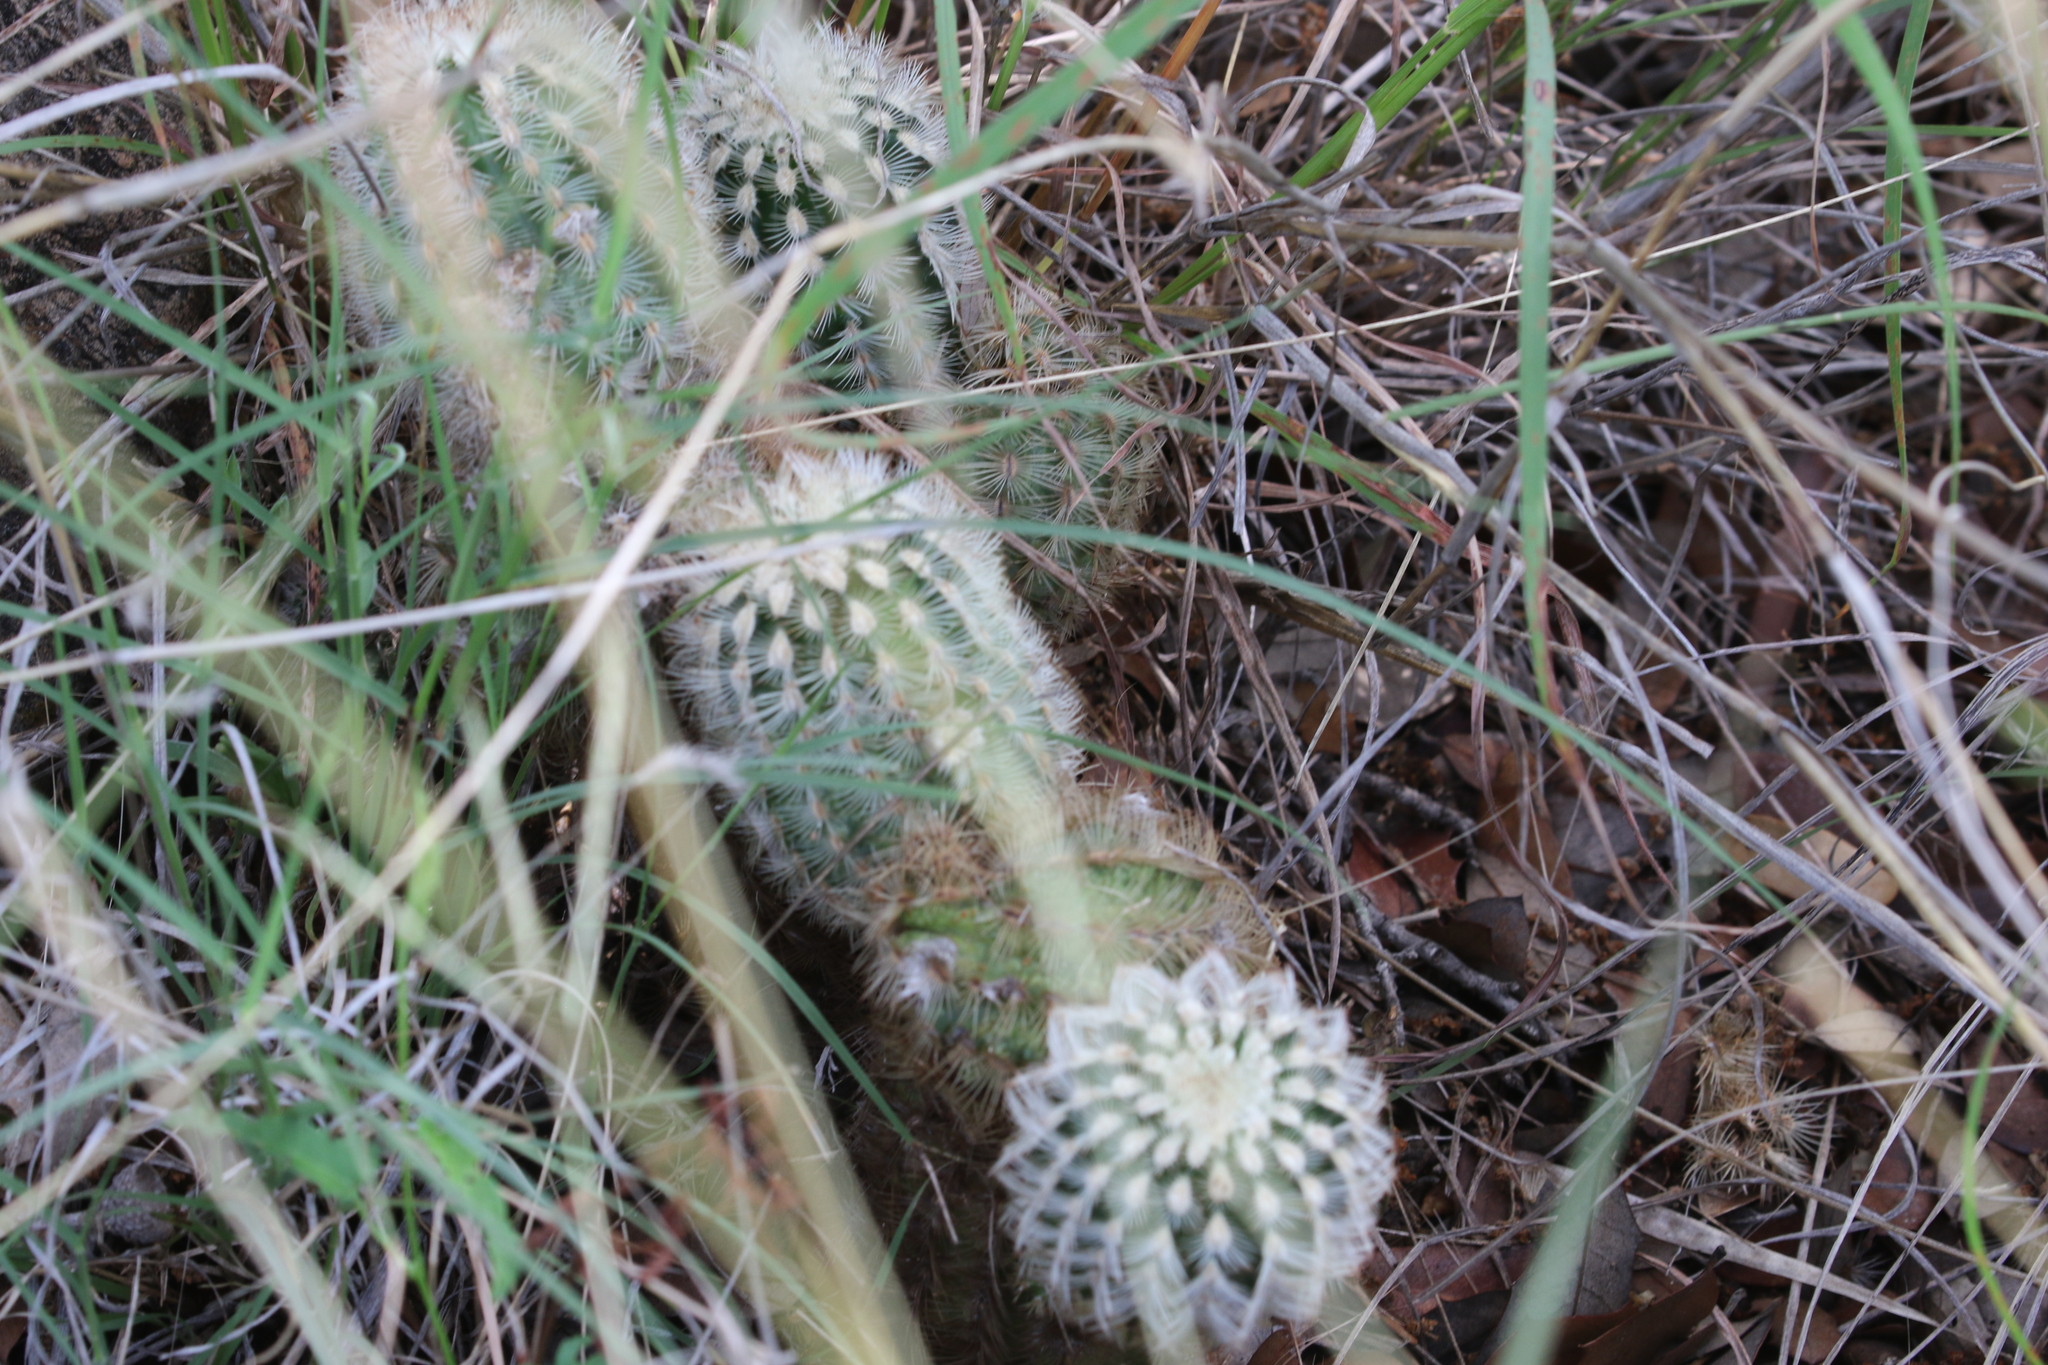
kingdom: Plantae
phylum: Tracheophyta
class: Magnoliopsida
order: Caryophyllales
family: Cactaceae
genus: Echinocereus
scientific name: Echinocereus reichenbachii
